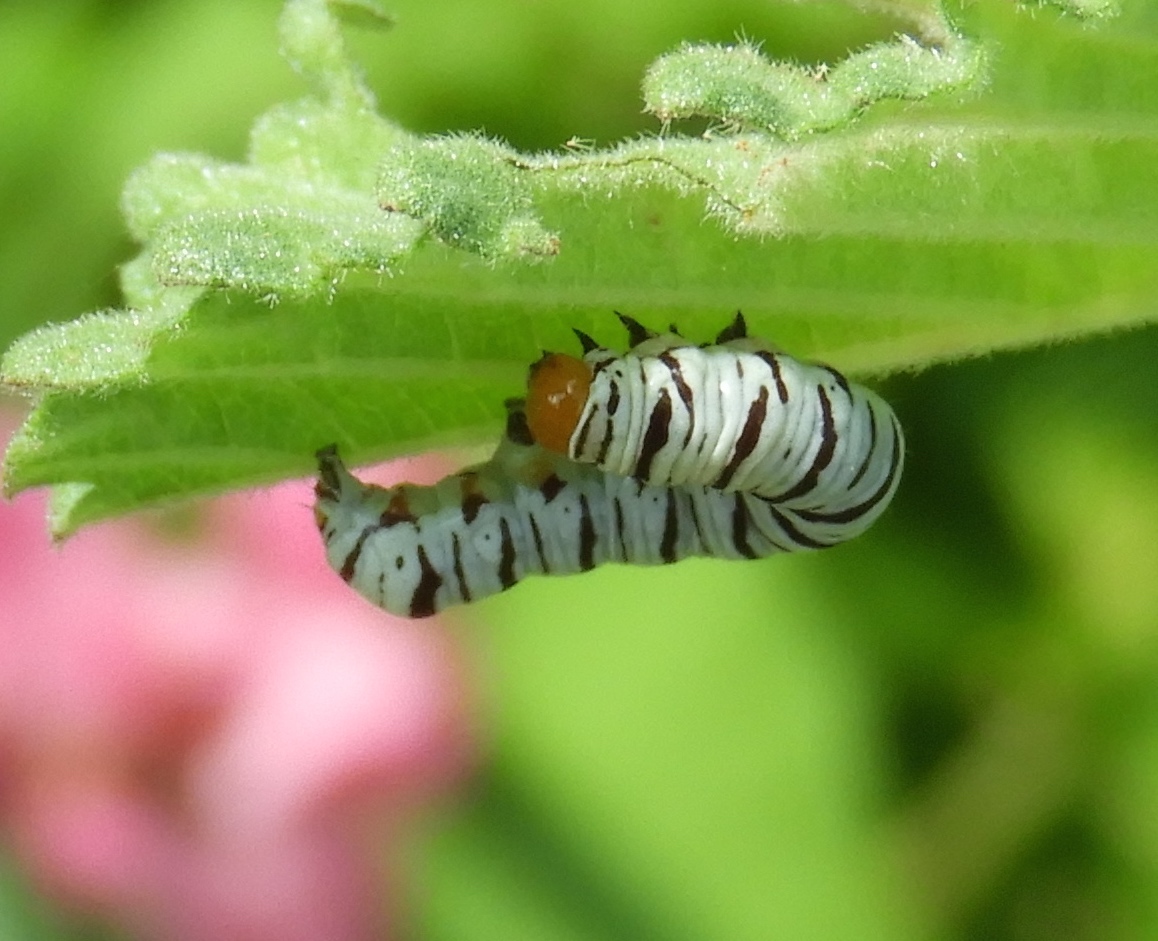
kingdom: Animalia
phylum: Arthropoda
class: Insecta
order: Lepidoptera
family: Erebidae
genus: Diphthera
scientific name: Diphthera festiva
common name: Hieroglyphic moth
